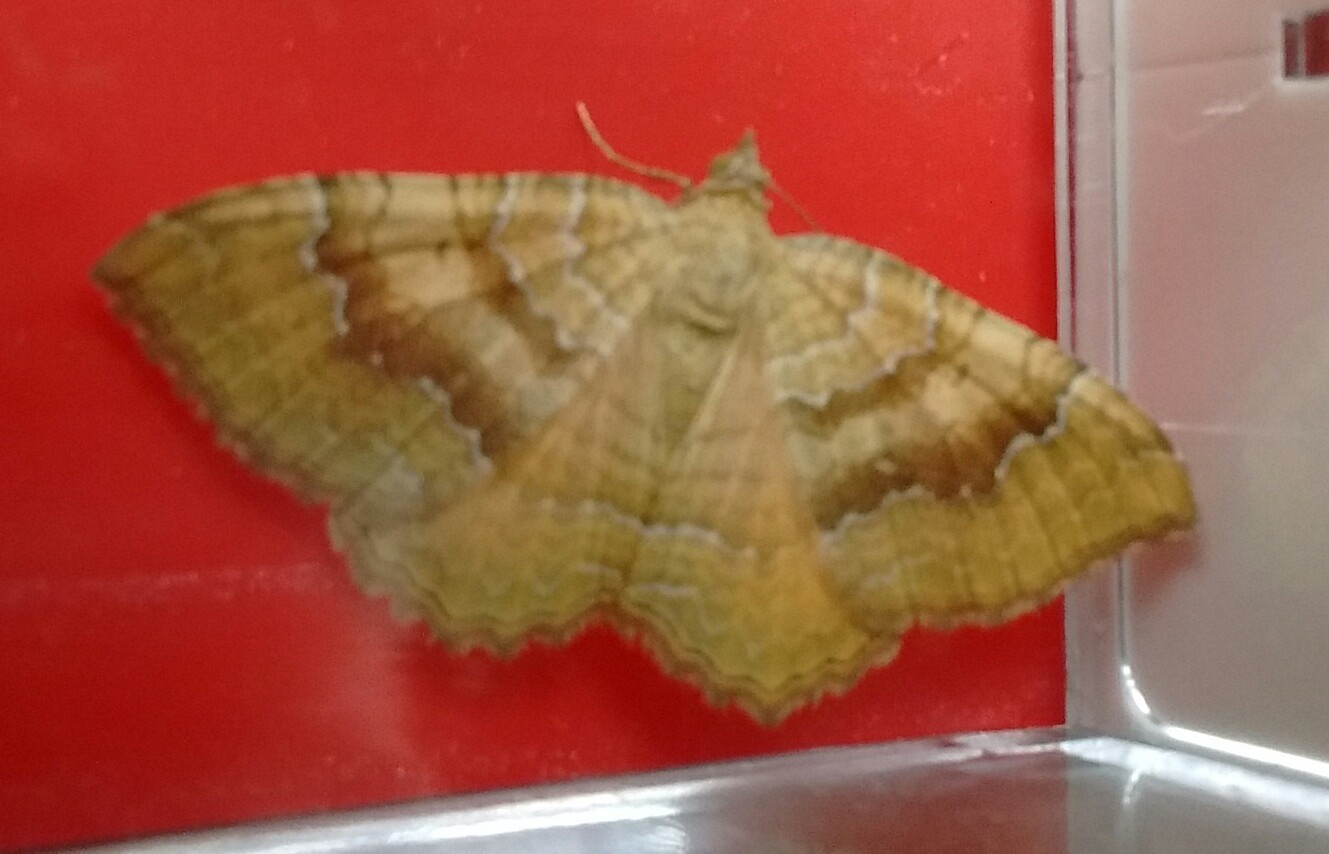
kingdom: Animalia
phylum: Arthropoda
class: Insecta
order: Lepidoptera
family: Geometridae
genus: Camptogramma
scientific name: Camptogramma bilineata
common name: Yellow shell
